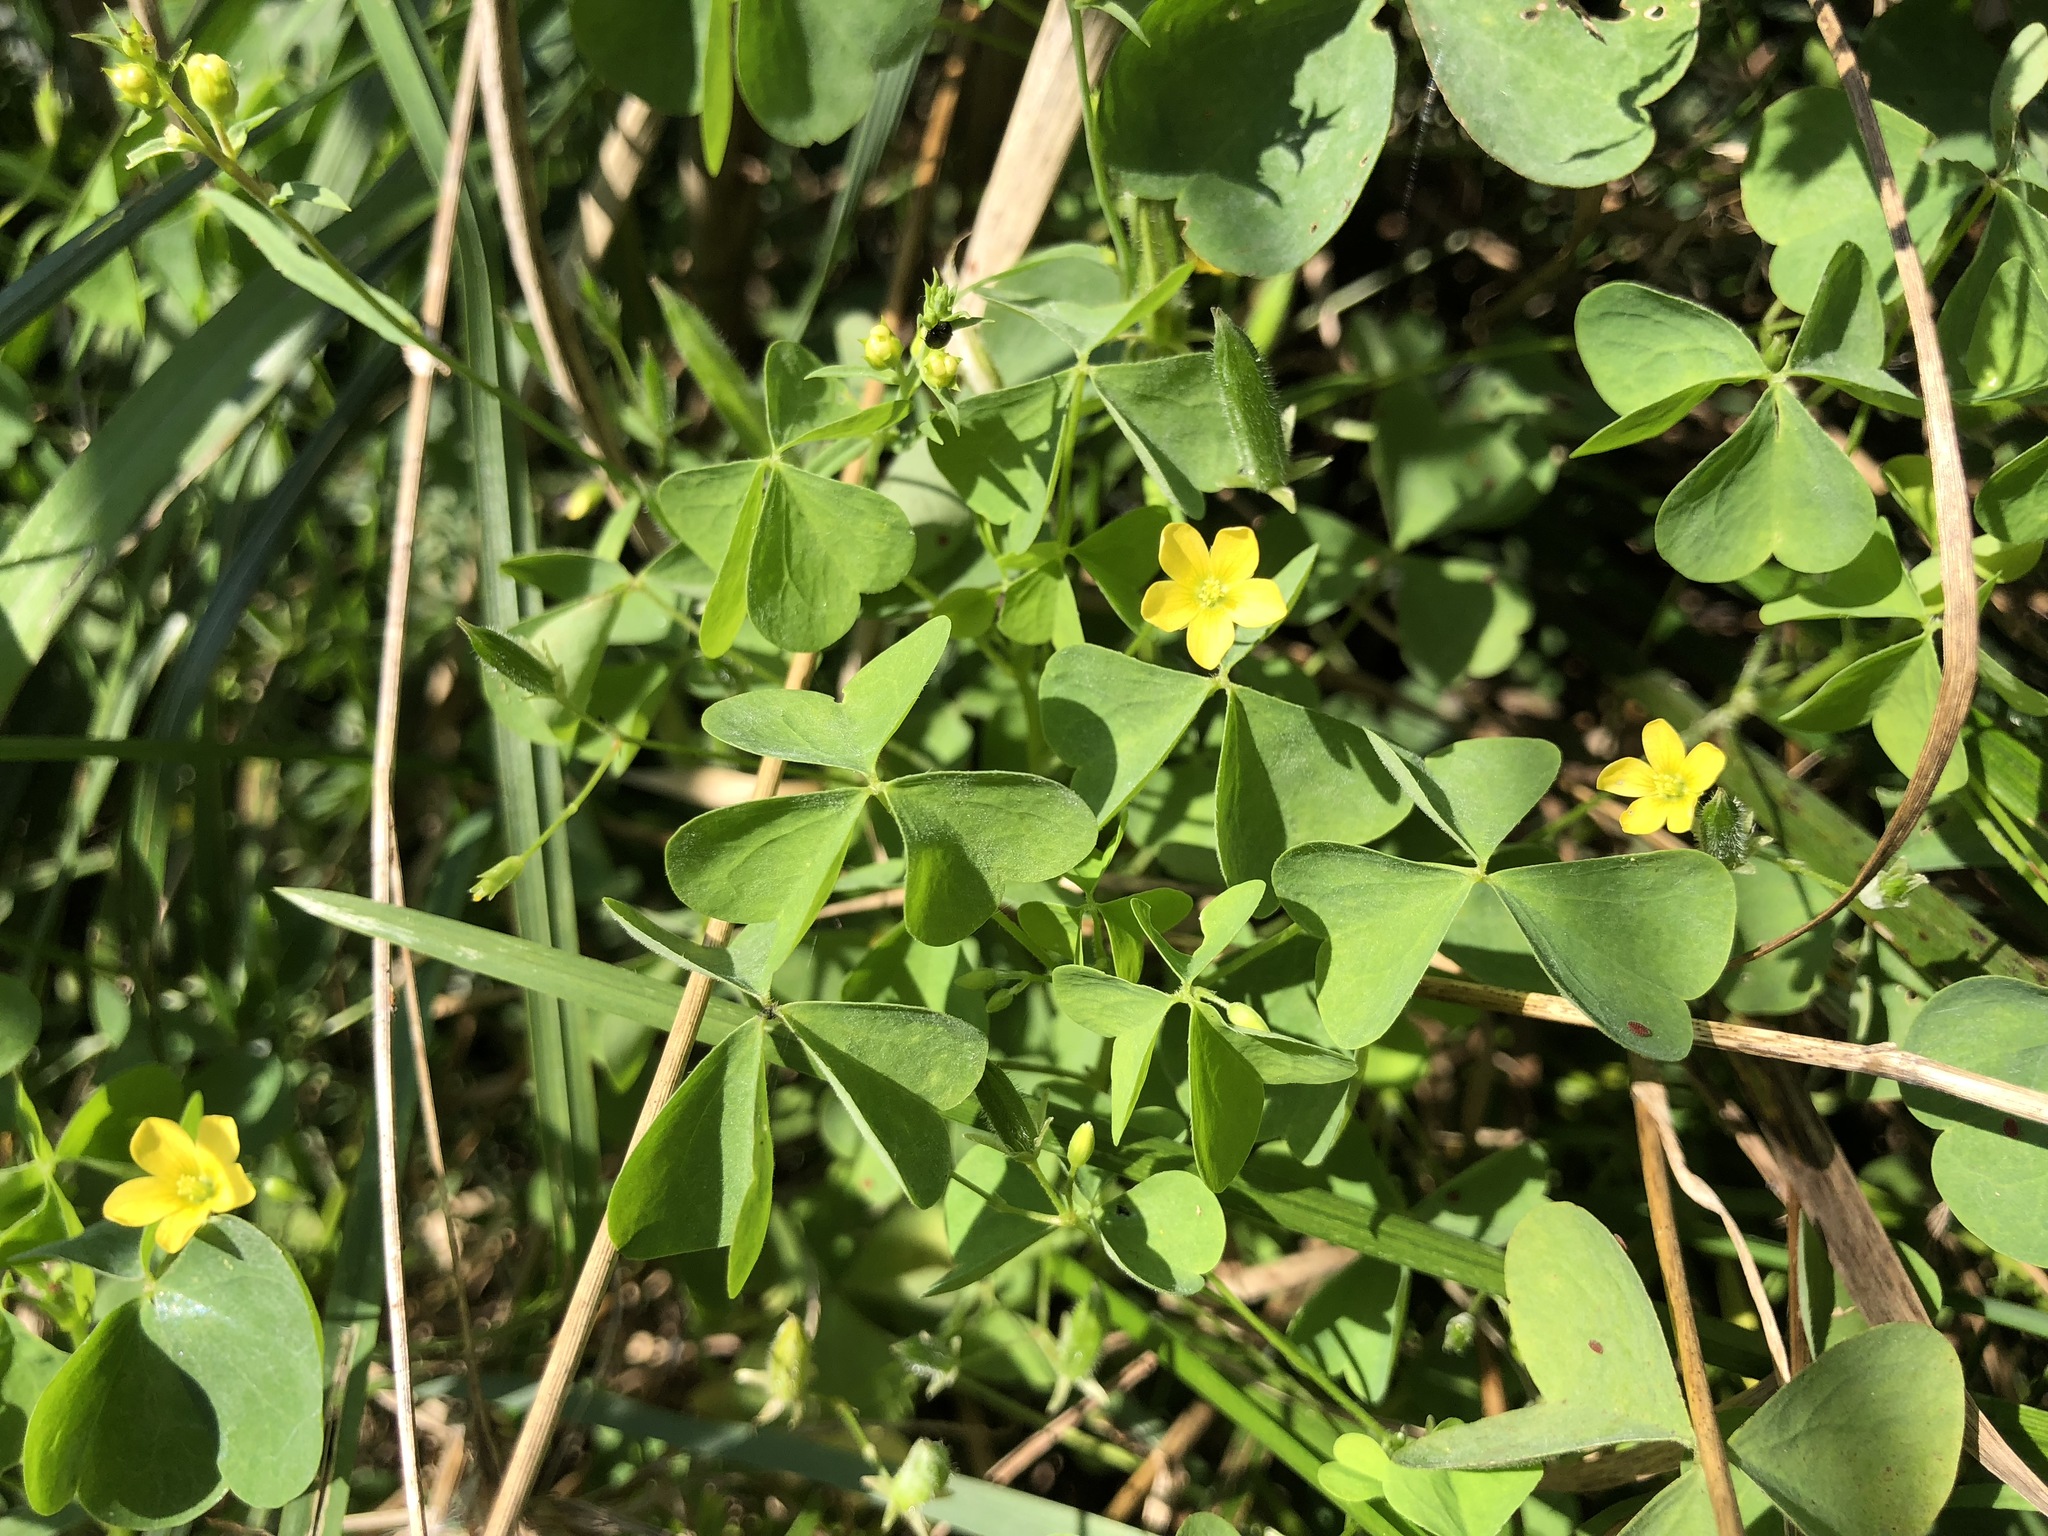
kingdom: Plantae
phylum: Tracheophyta
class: Magnoliopsida
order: Oxalidales
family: Oxalidaceae
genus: Oxalis
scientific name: Oxalis stricta
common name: Upright yellow-sorrel
